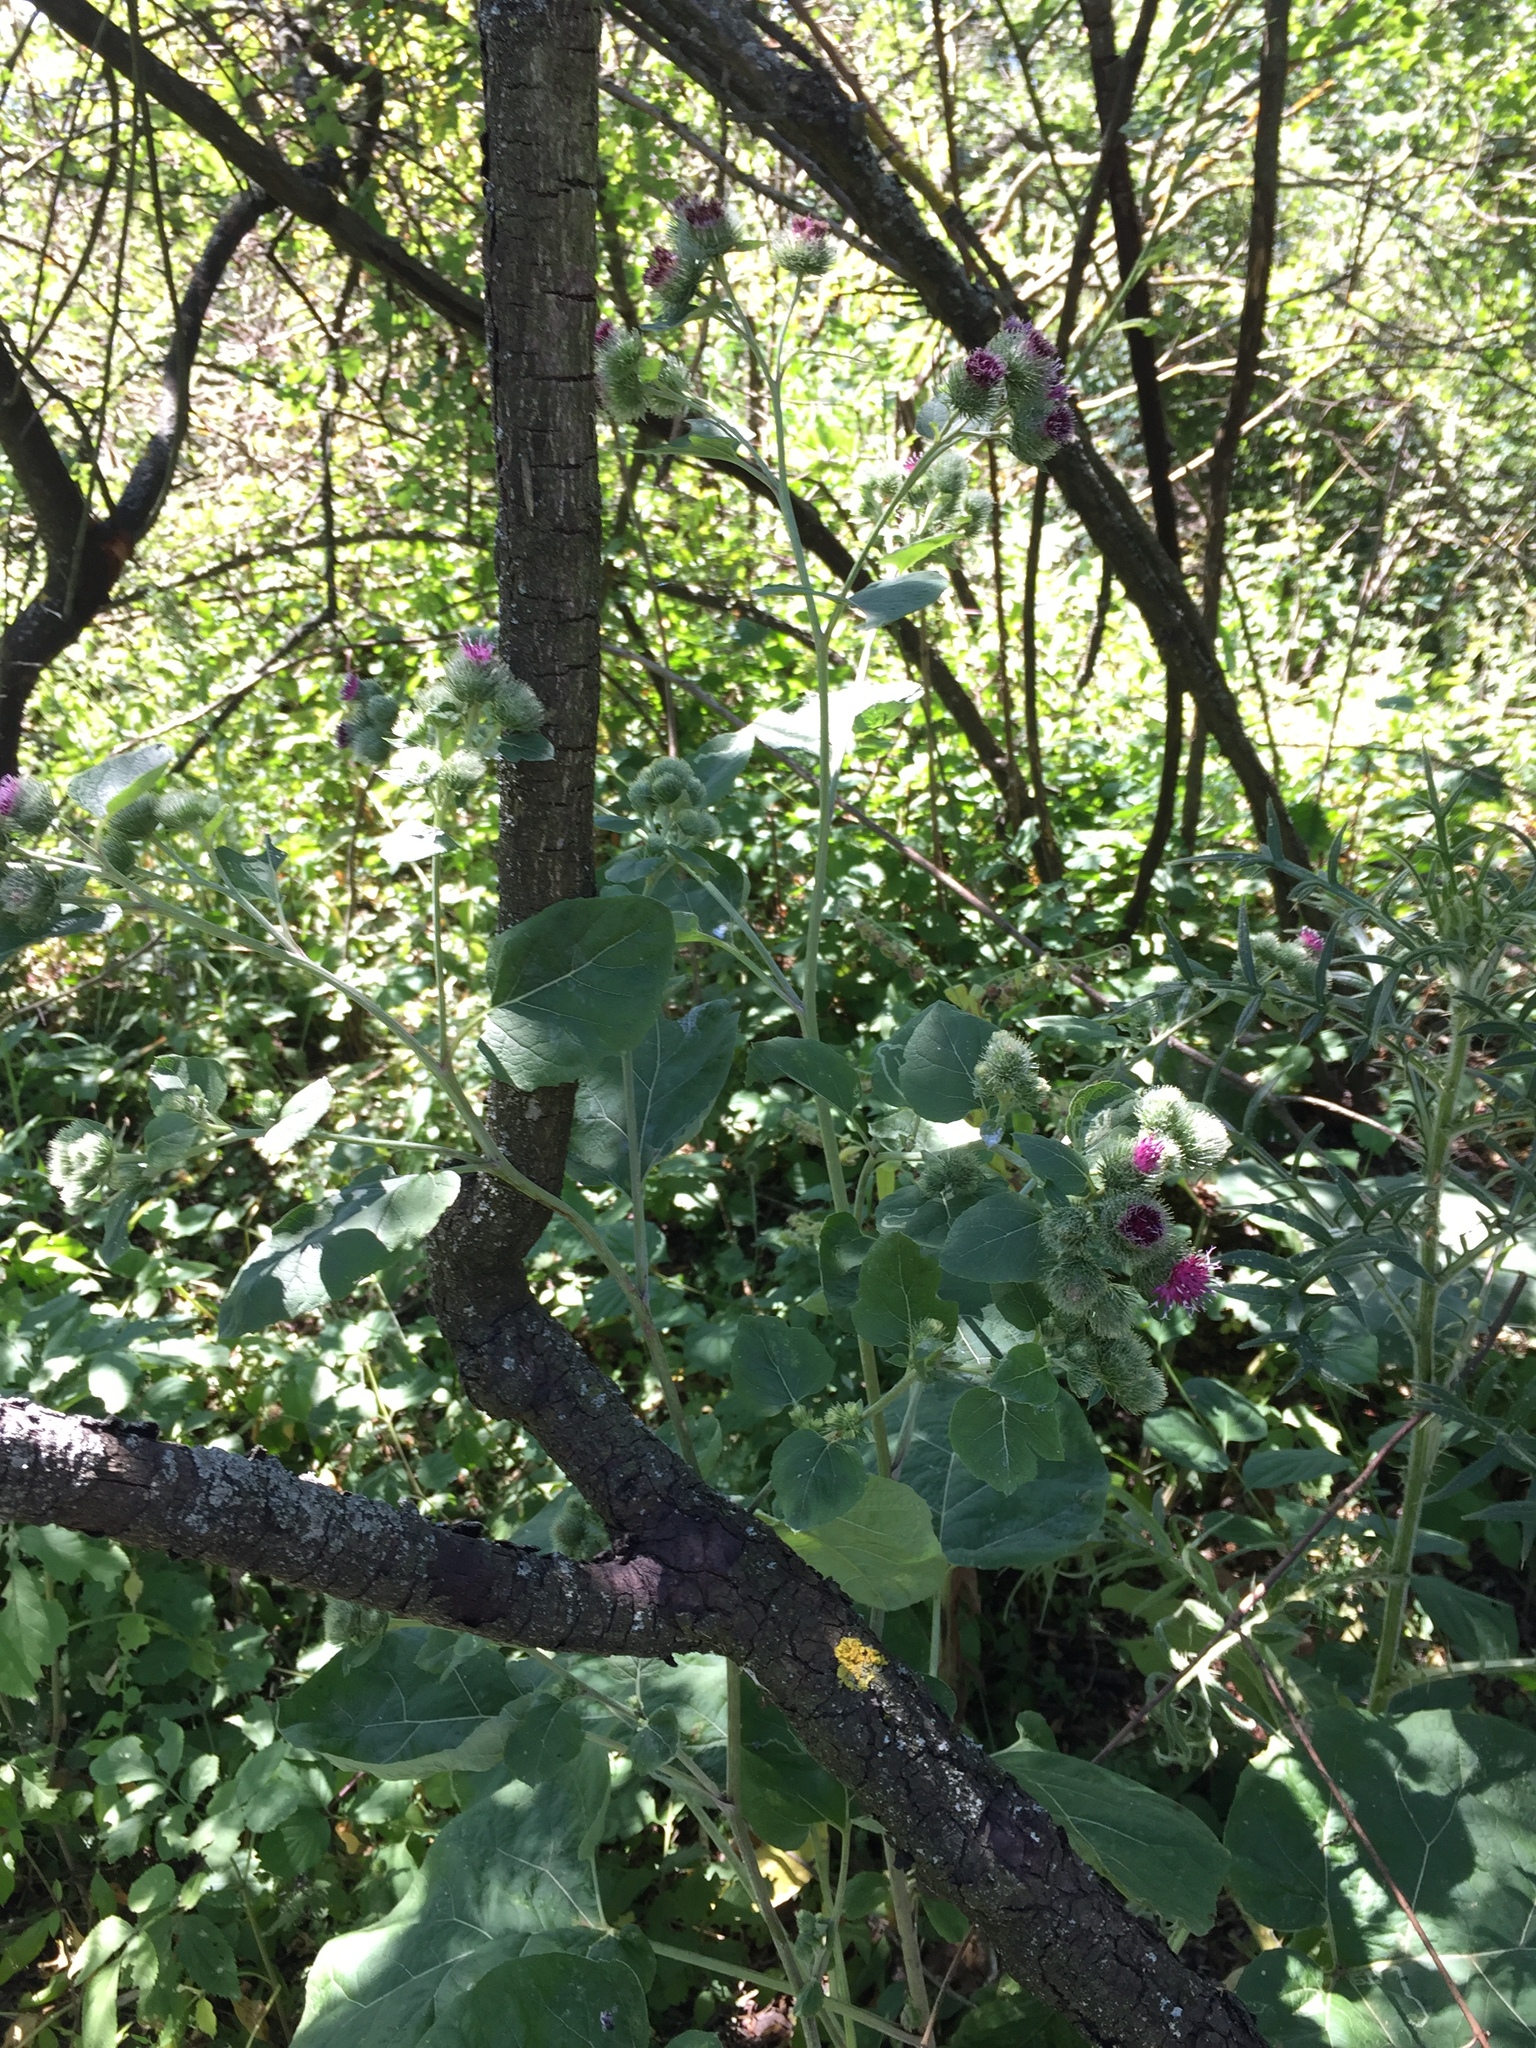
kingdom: Plantae
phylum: Tracheophyta
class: Magnoliopsida
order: Asterales
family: Asteraceae
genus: Arctium
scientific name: Arctium tomentosum
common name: Woolly burdock
